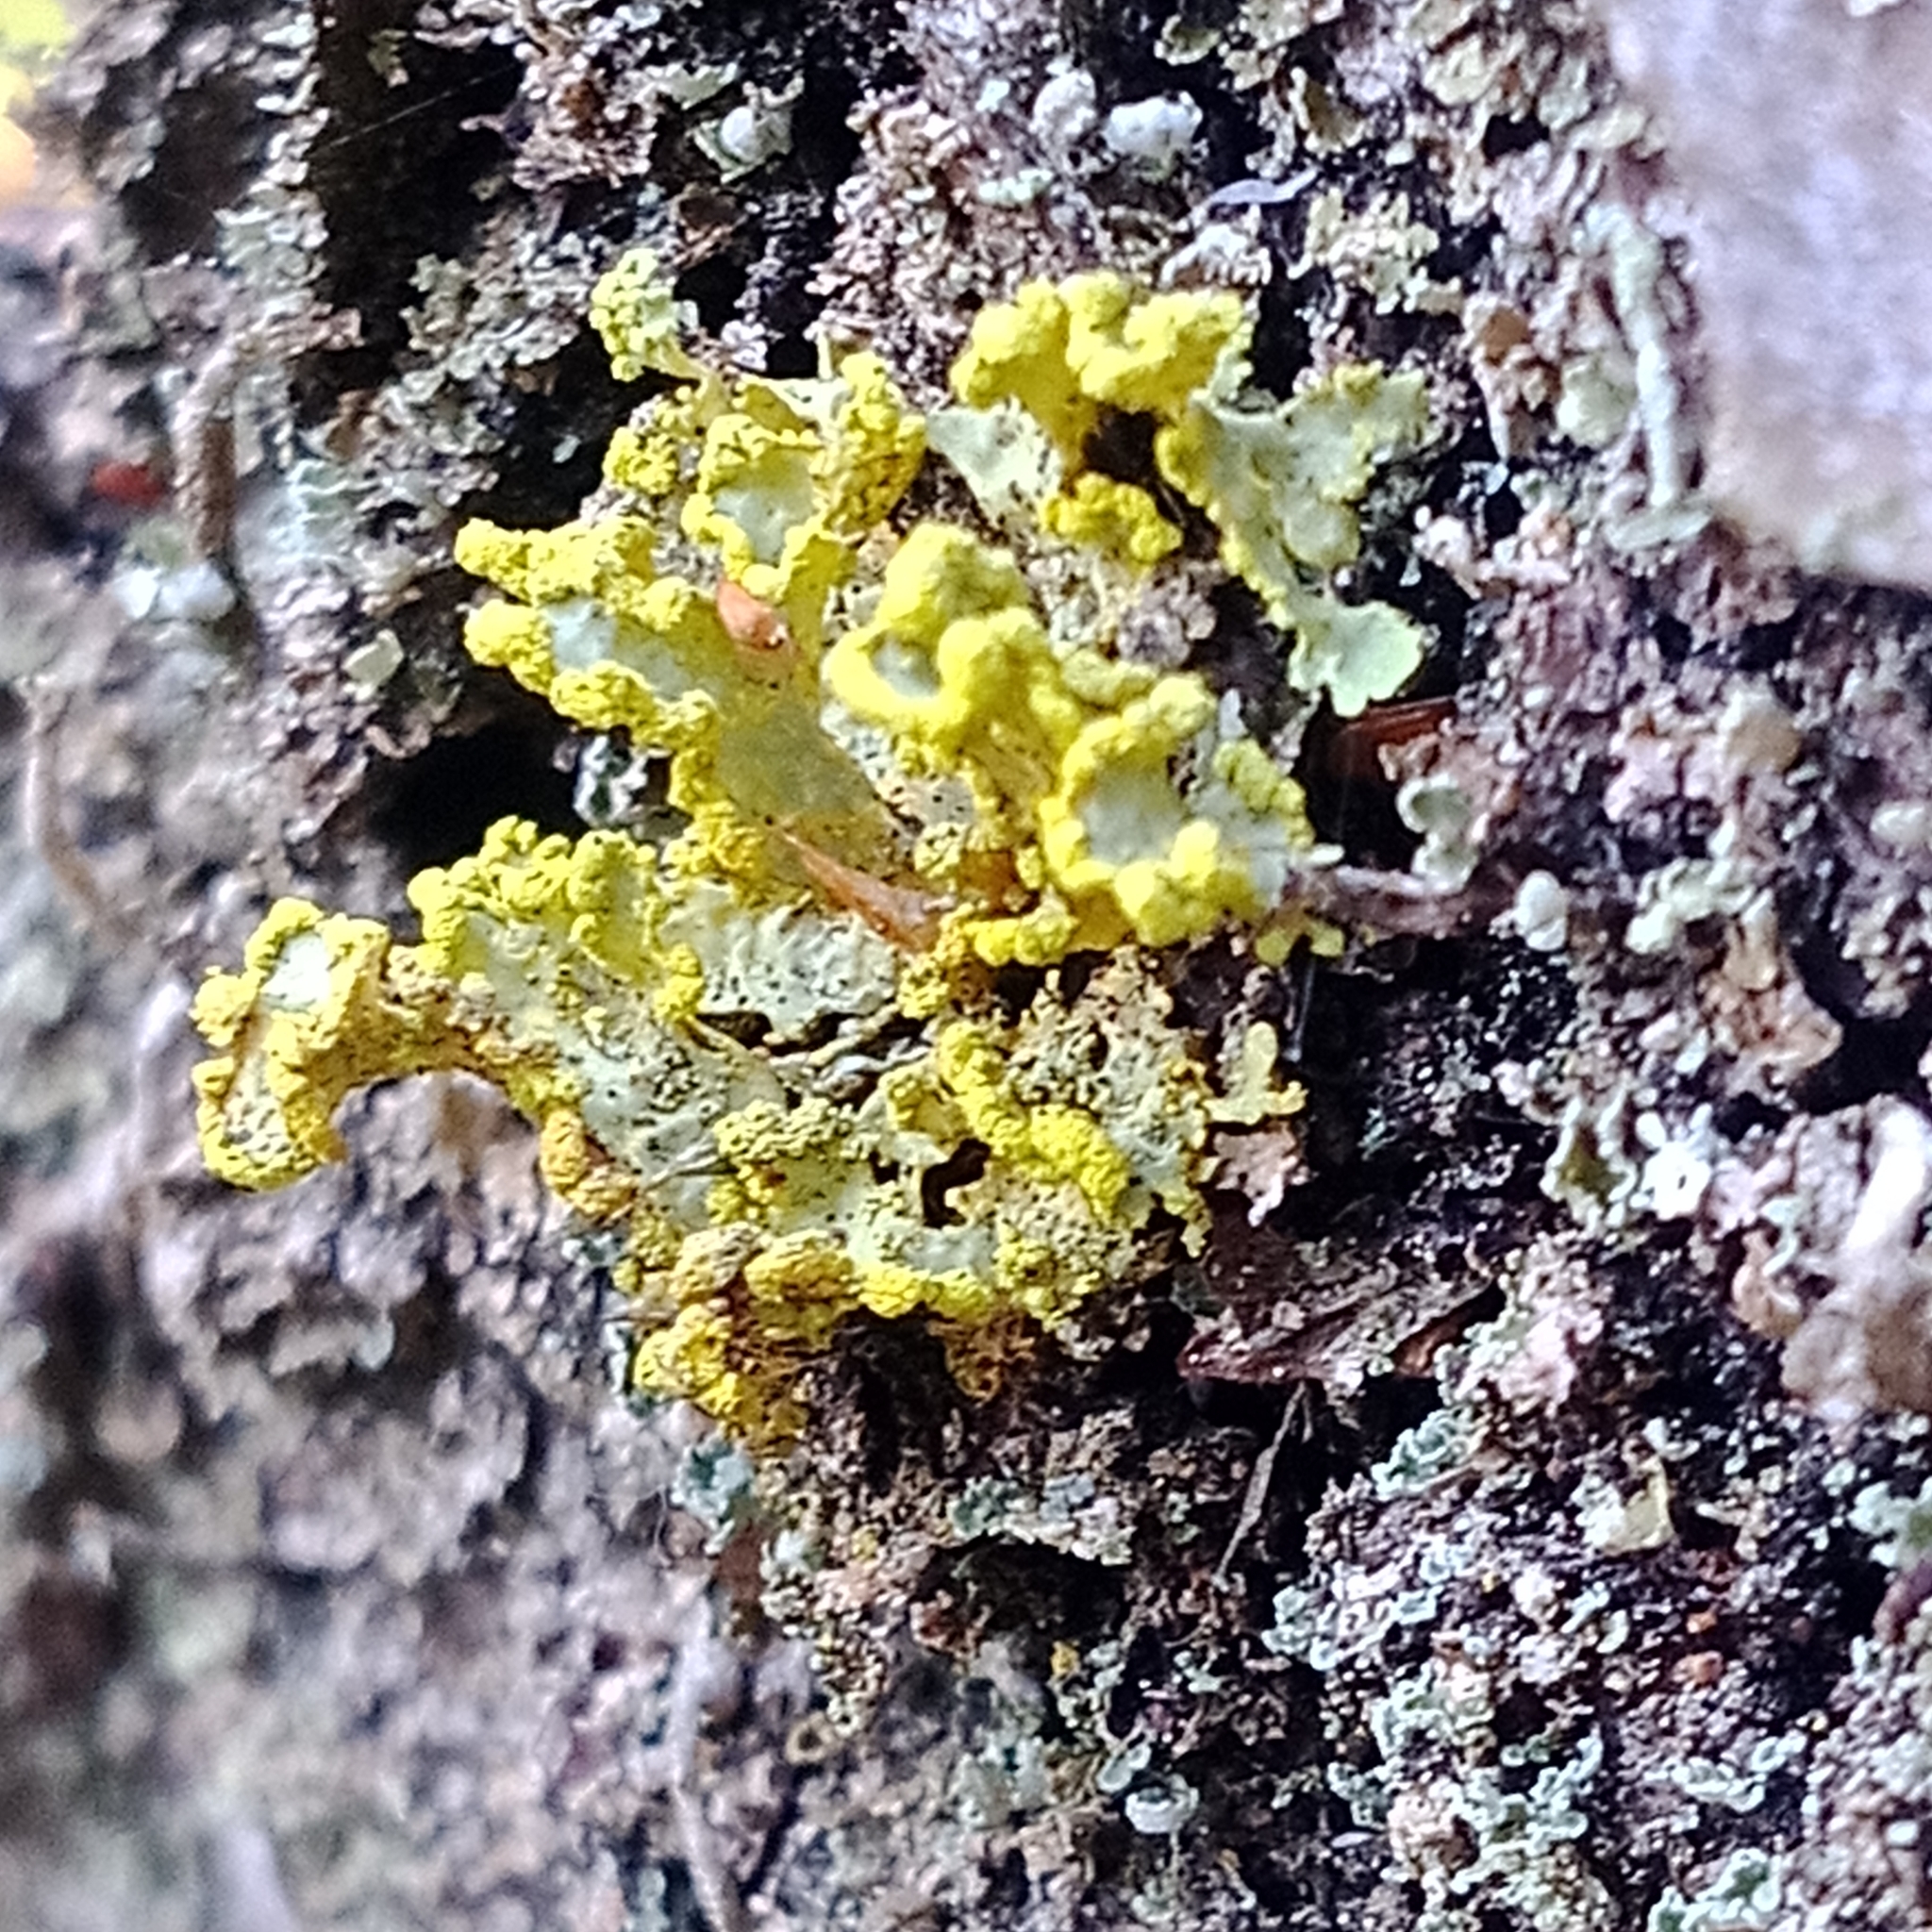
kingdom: Fungi
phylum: Ascomycota
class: Lecanoromycetes
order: Lecanorales
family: Parmeliaceae
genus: Vulpicida
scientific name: Vulpicida pinastri
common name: Powdered sunshine lichen
